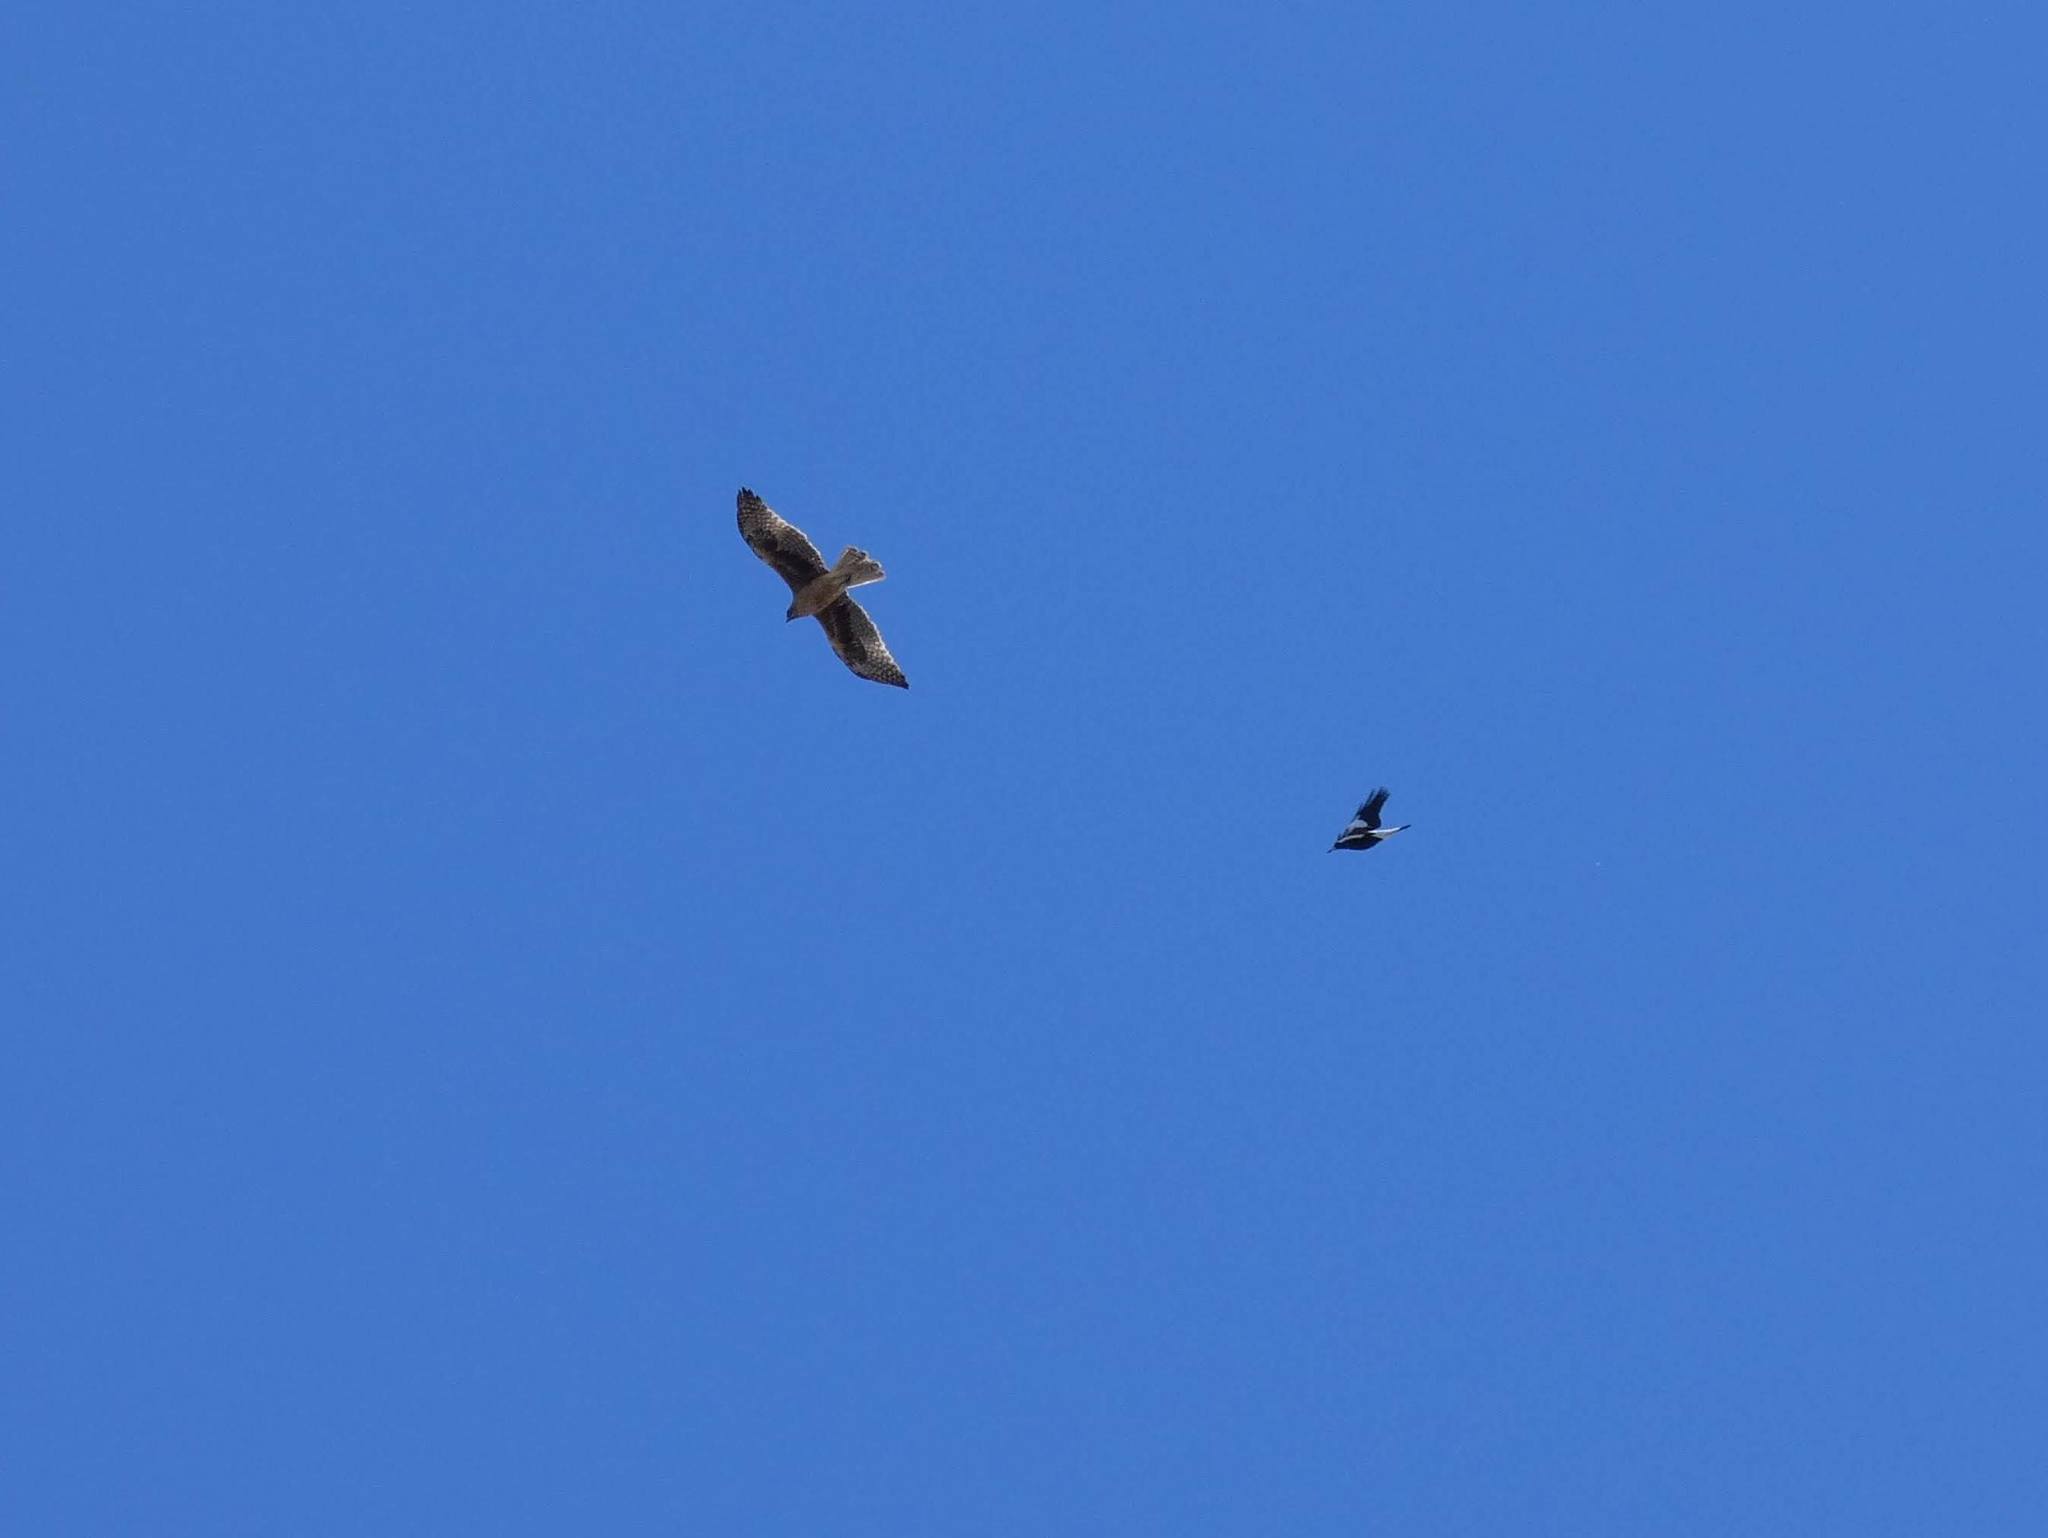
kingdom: Animalia
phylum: Chordata
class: Aves
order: Accipitriformes
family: Accipitridae
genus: Hieraaetus
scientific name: Hieraaetus morphnoides
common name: Little eagle
